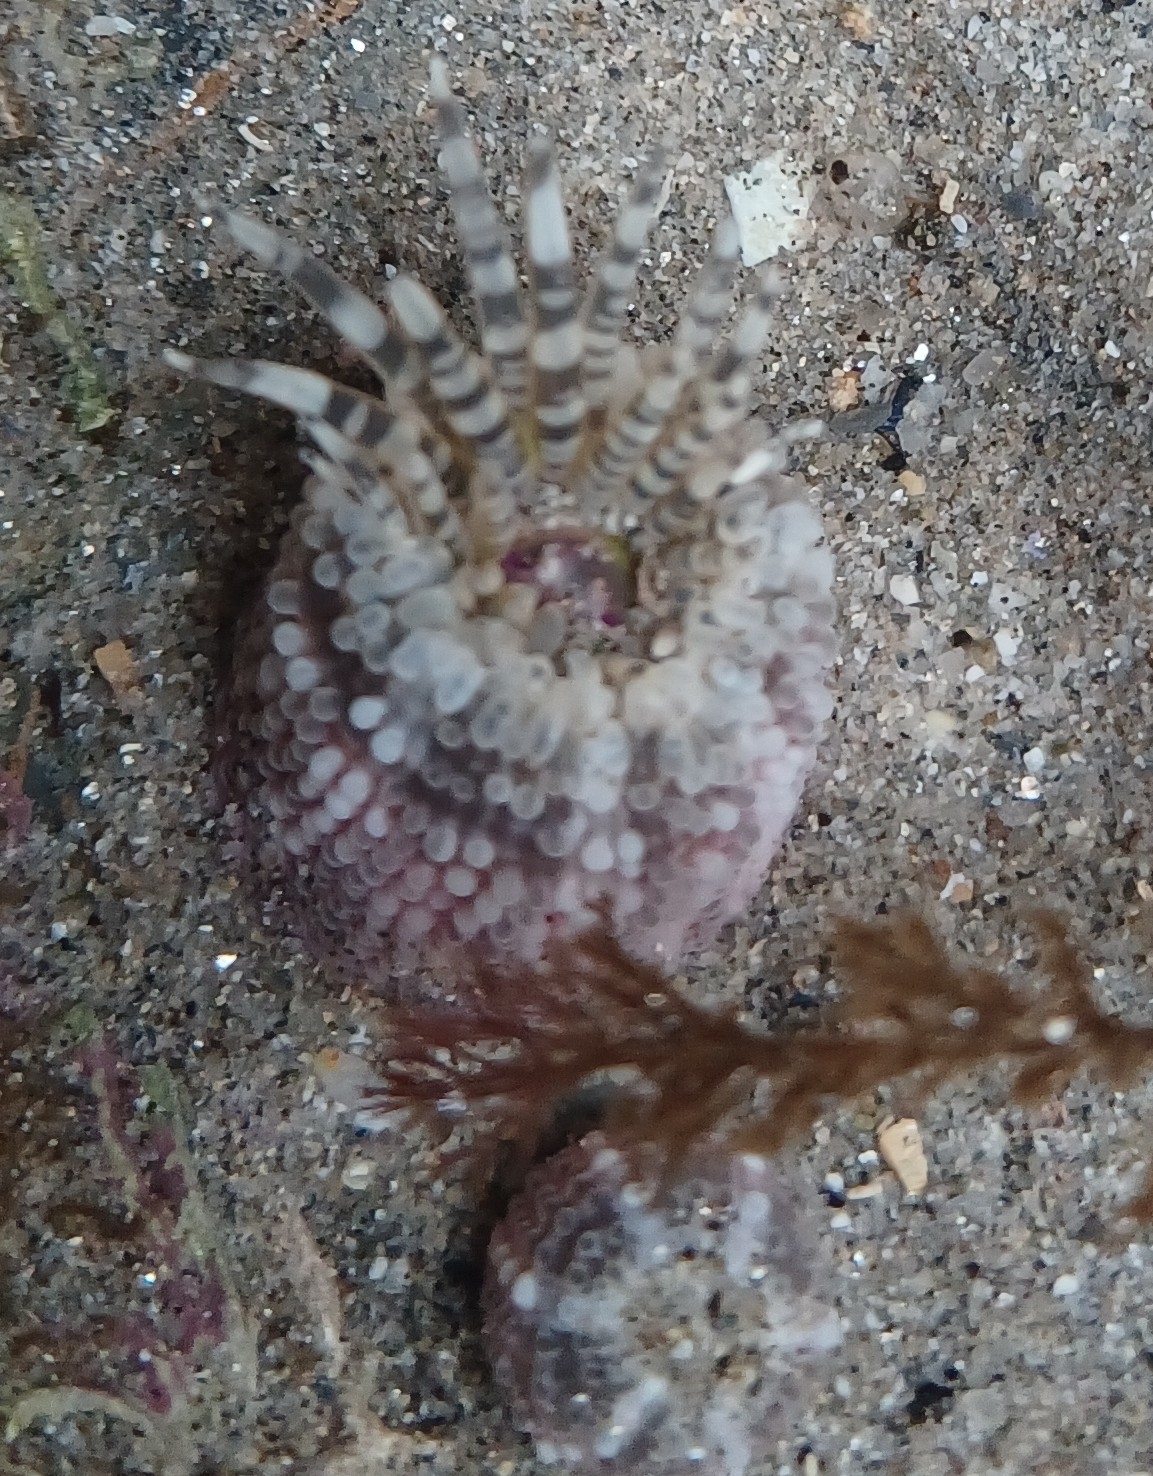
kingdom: Animalia
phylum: Cnidaria
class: Anthozoa
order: Actiniaria
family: Actiniidae
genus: Bunodactis
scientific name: Bunodactis verrucosa
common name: Gem anemone
